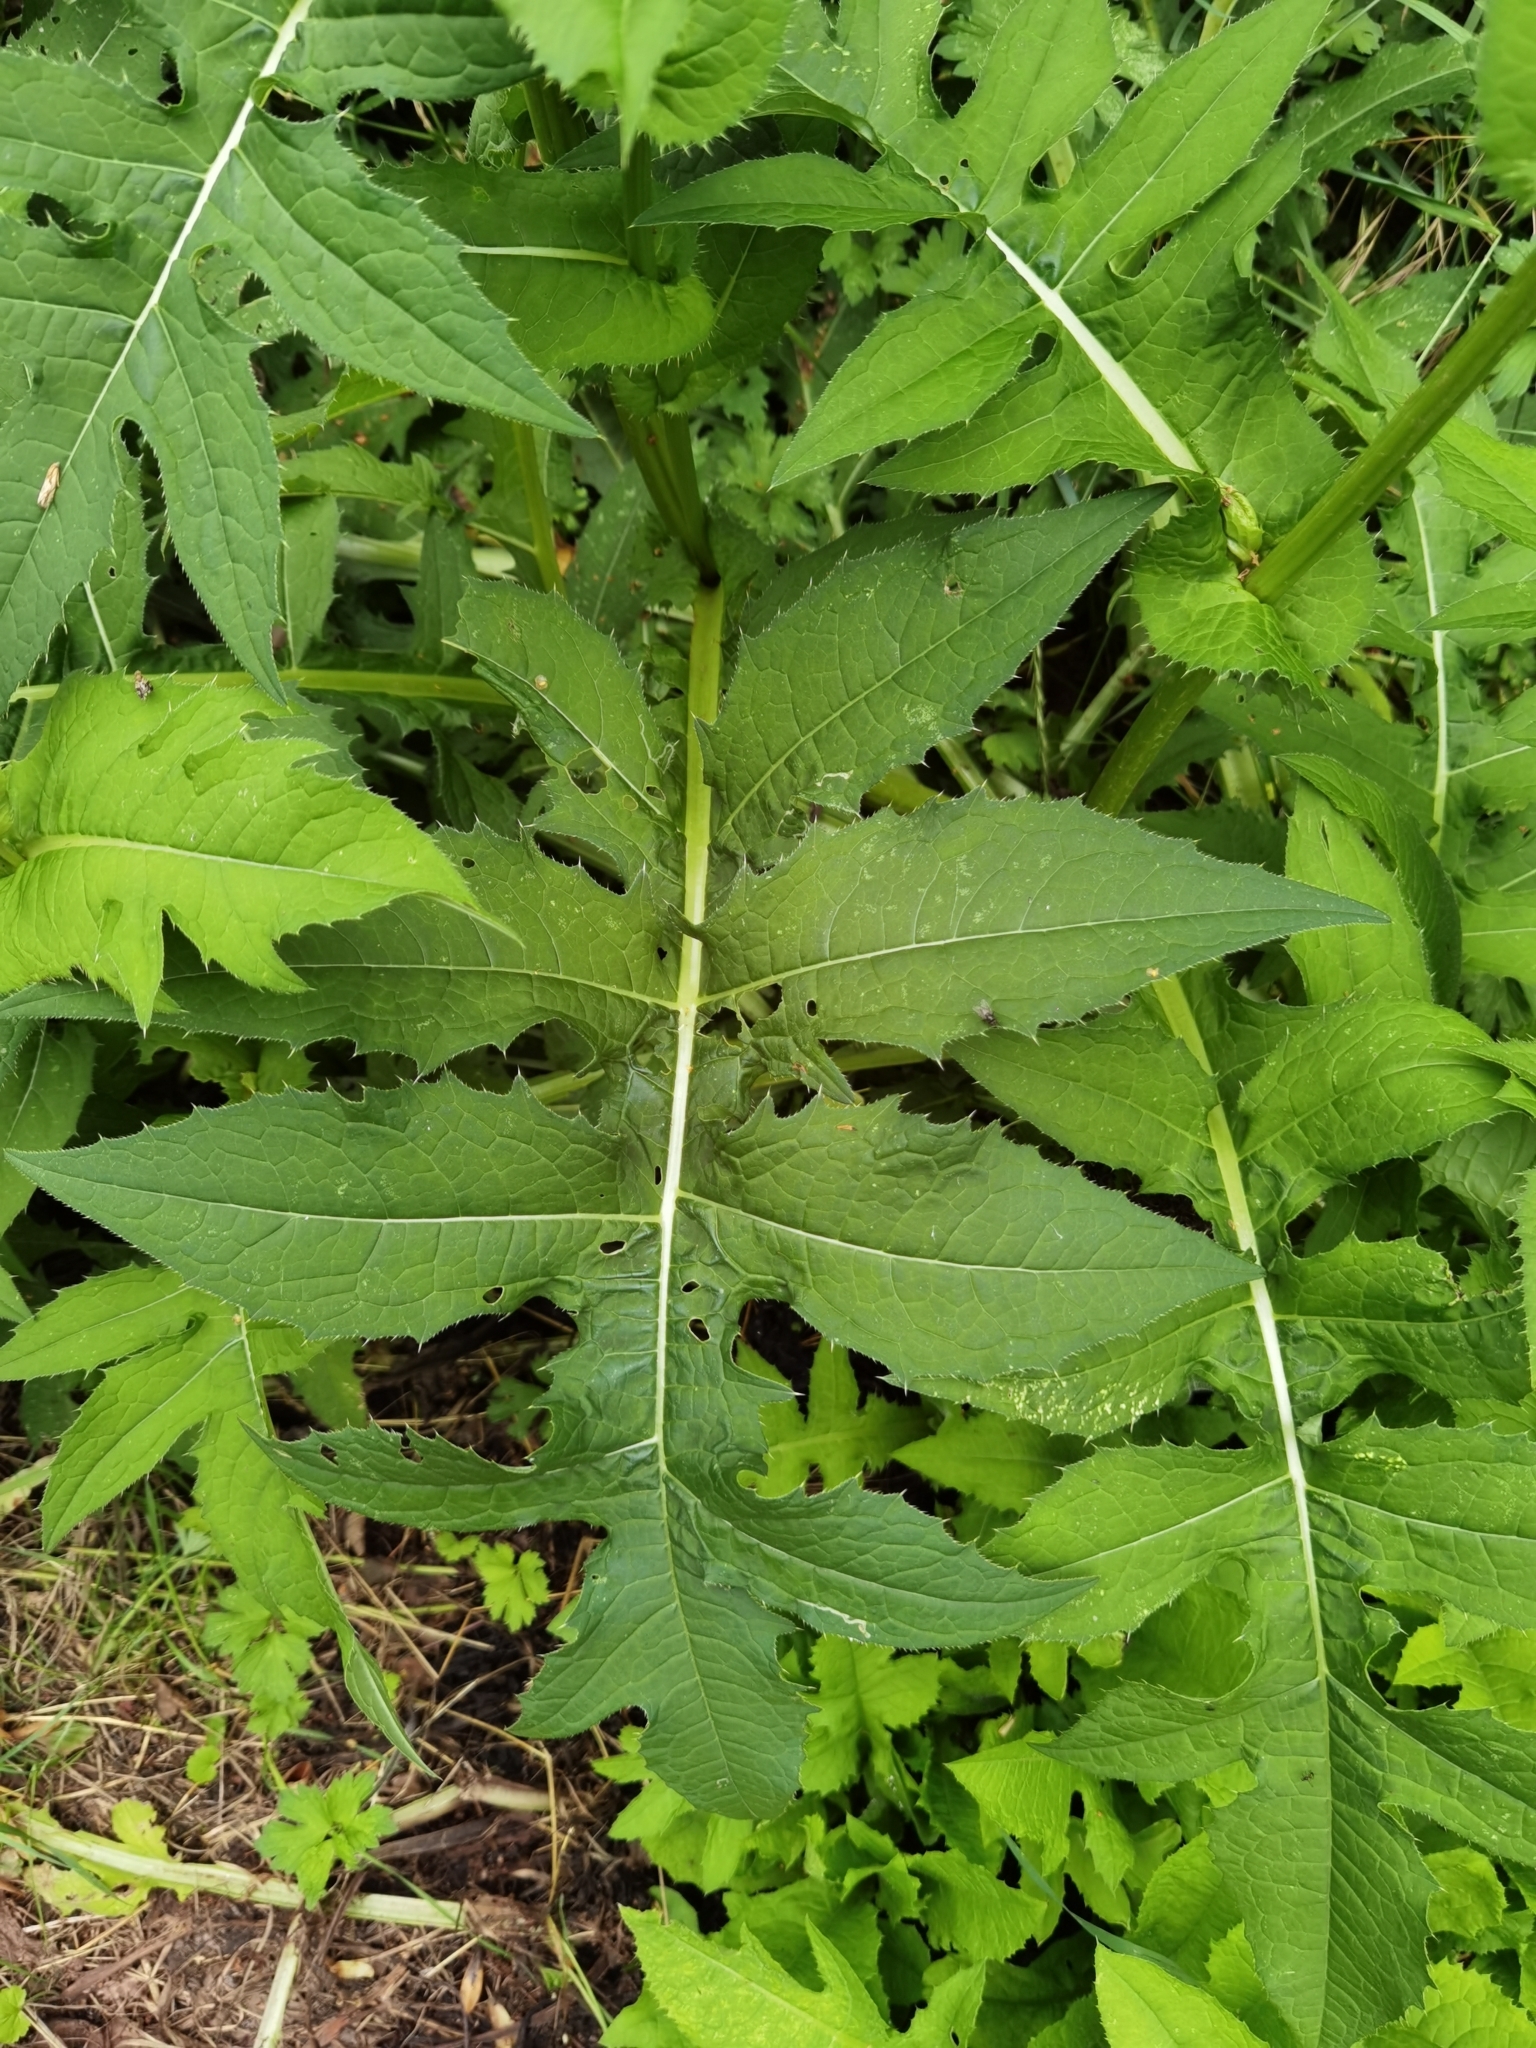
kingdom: Plantae
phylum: Tracheophyta
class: Magnoliopsida
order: Asterales
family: Asteraceae
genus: Cirsium
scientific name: Cirsium oleraceum
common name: Cabbage thistle
